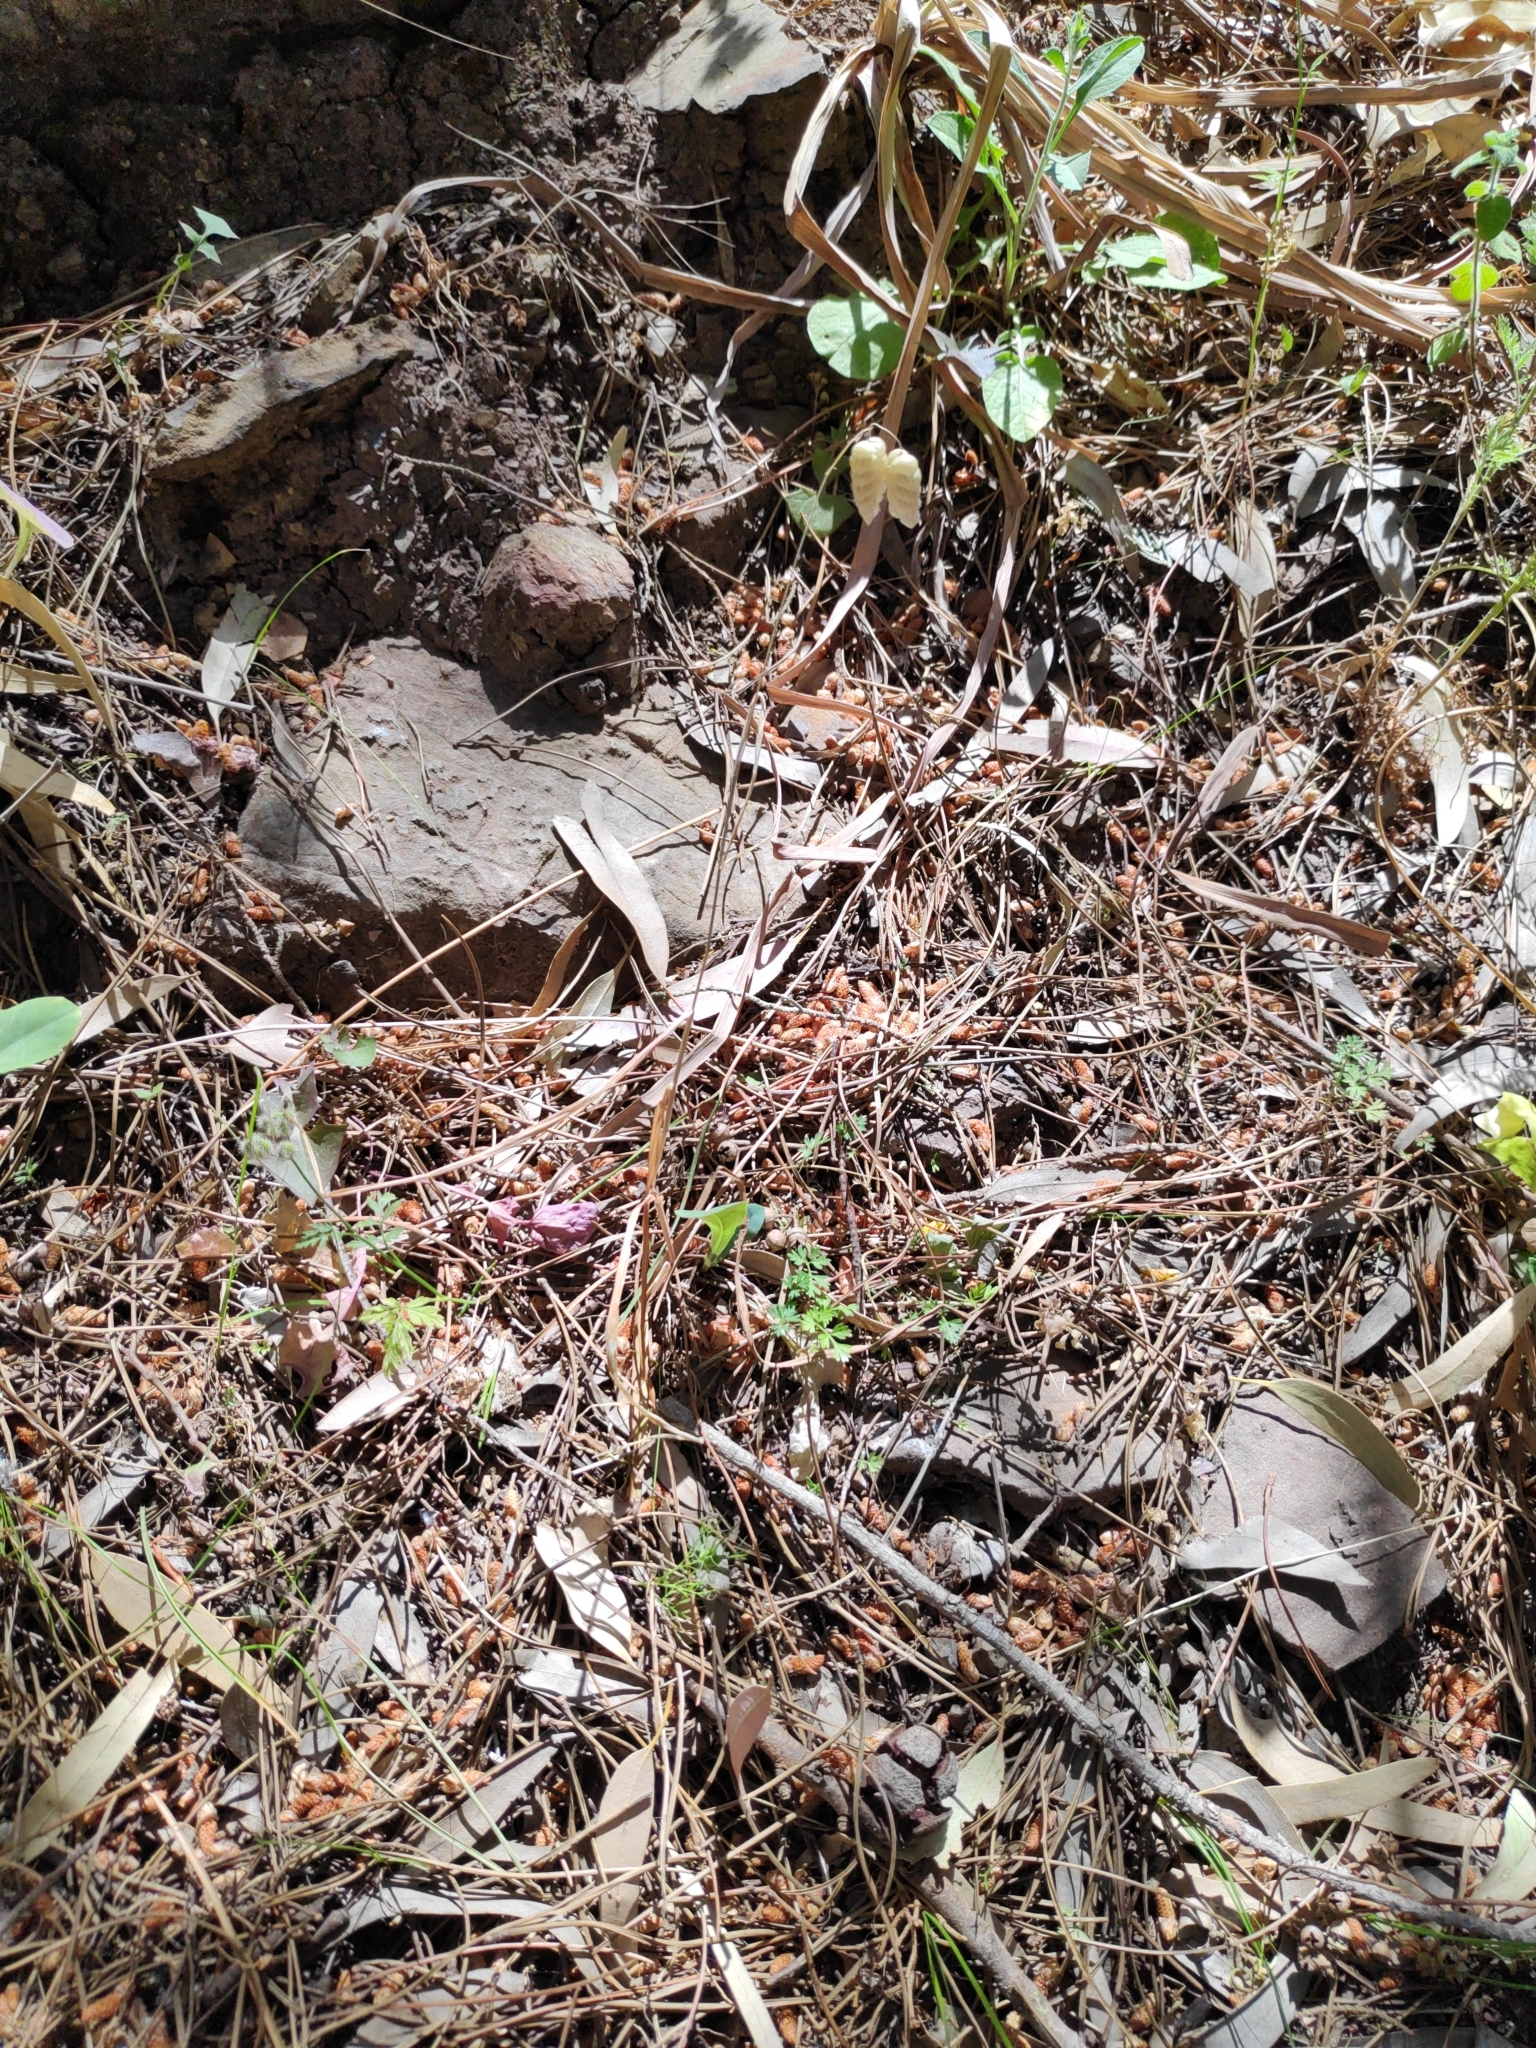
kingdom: Plantae
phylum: Tracheophyta
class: Liliopsida
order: Poales
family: Poaceae
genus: Briza
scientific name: Briza maxima
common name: Big quakinggrass
